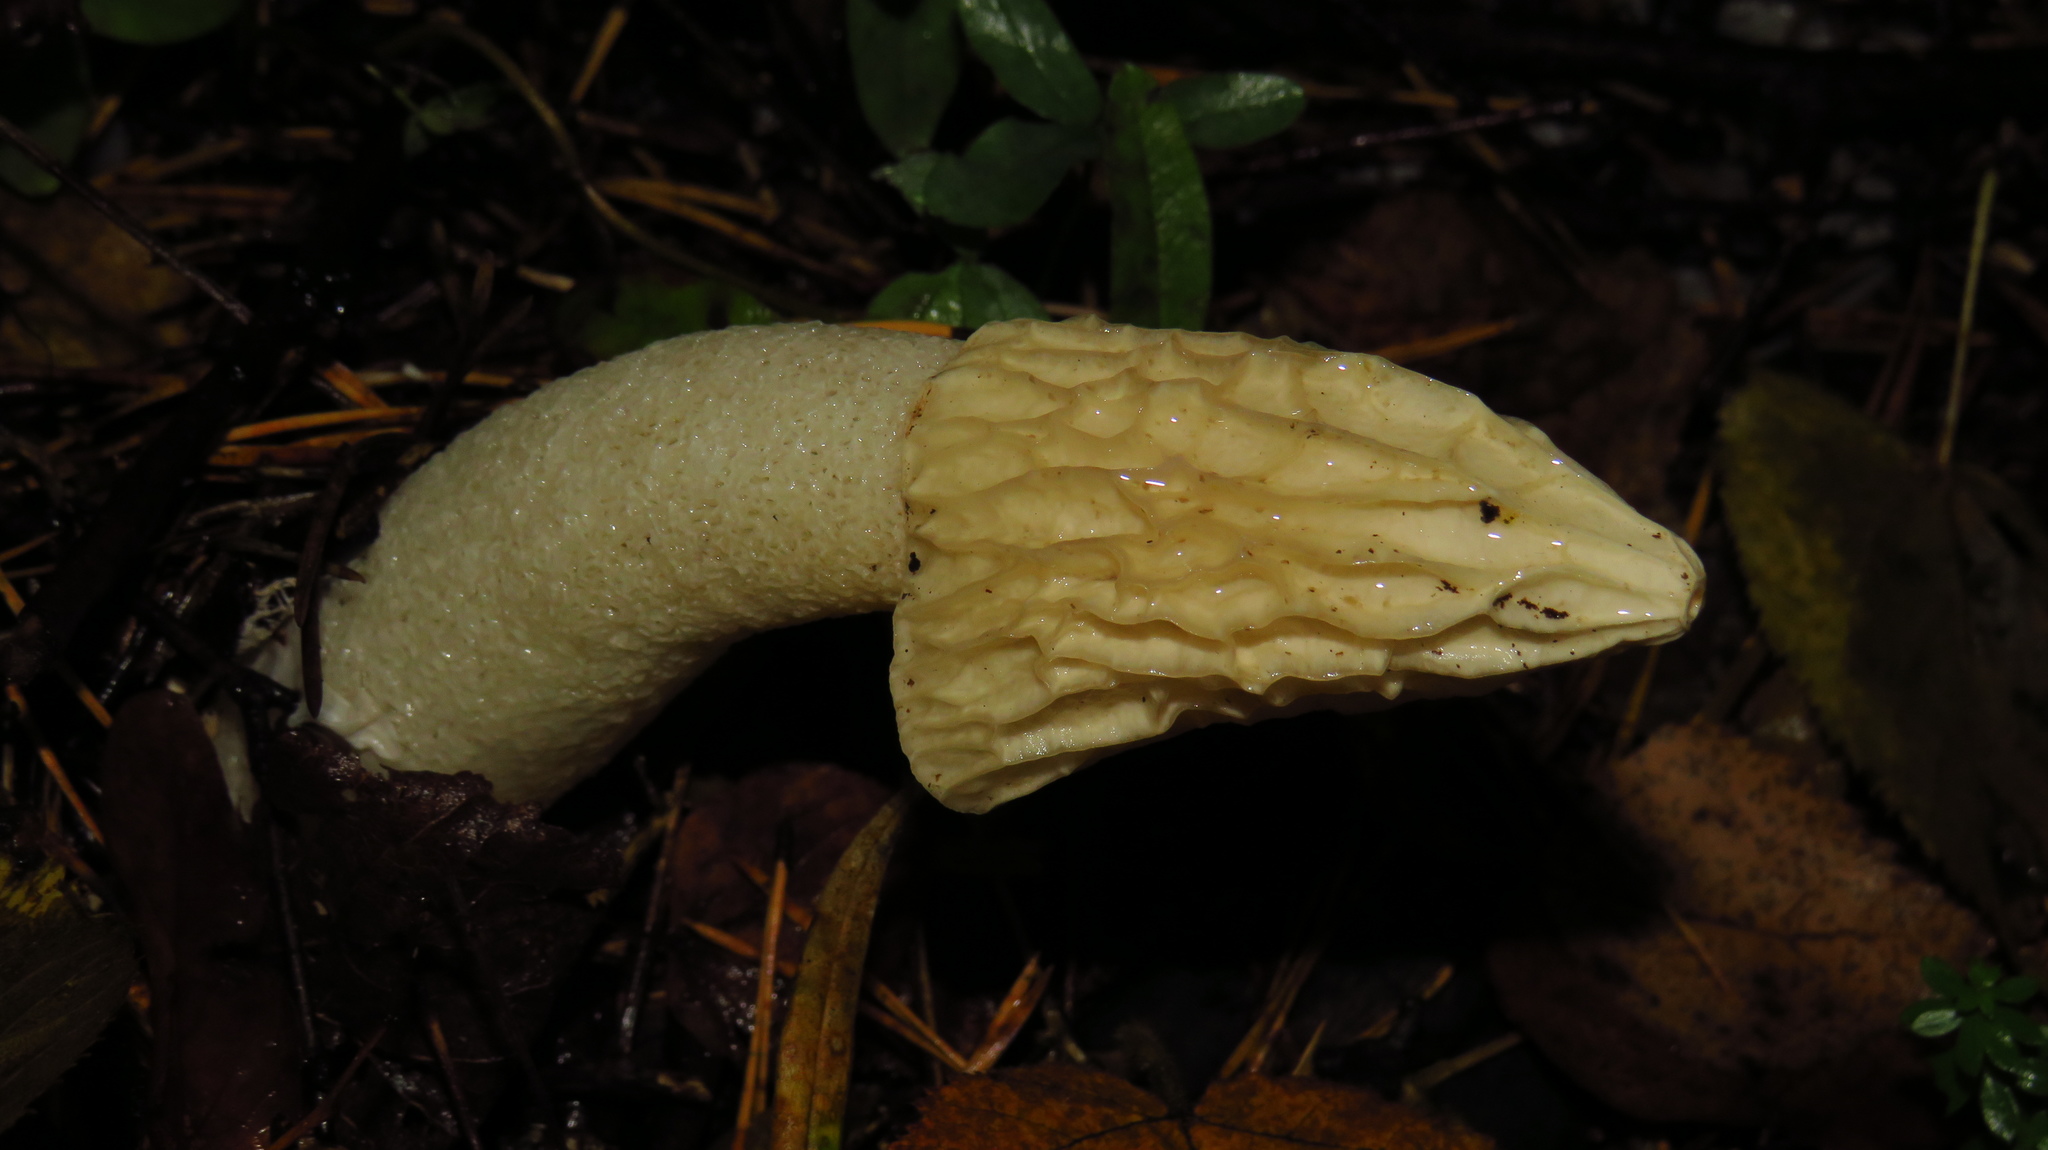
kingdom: Fungi
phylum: Basidiomycota
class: Agaricomycetes
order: Phallales
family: Phallaceae
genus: Phallus
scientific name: Phallus
